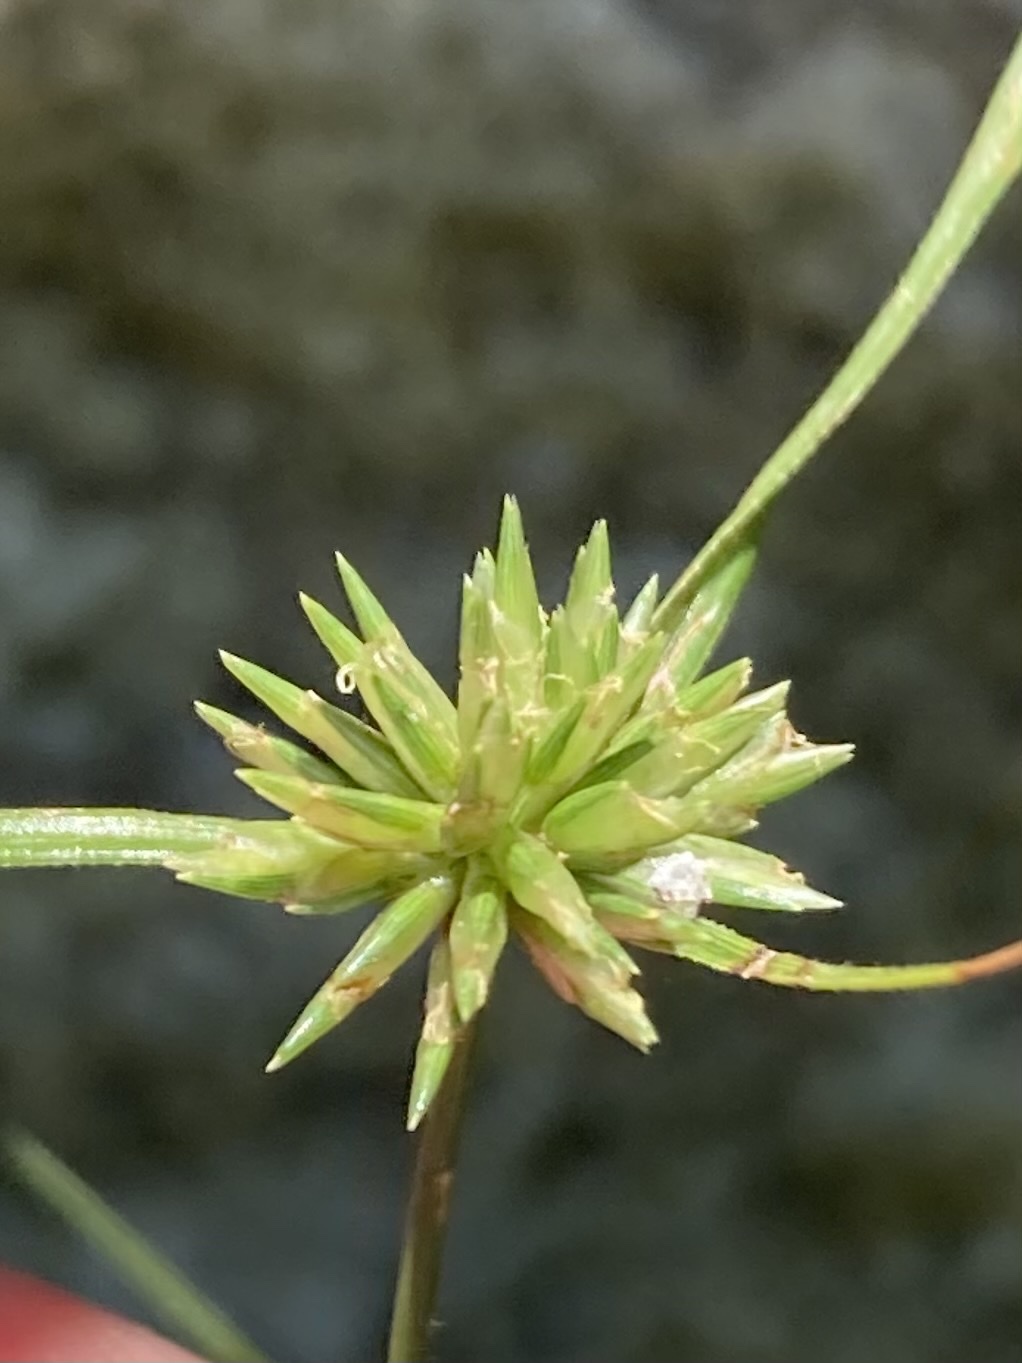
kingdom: Plantae
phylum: Tracheophyta
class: Liliopsida
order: Poales
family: Cyperaceae
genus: Cyperus
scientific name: Cyperus lupulinus
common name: Great plains flatsedge
